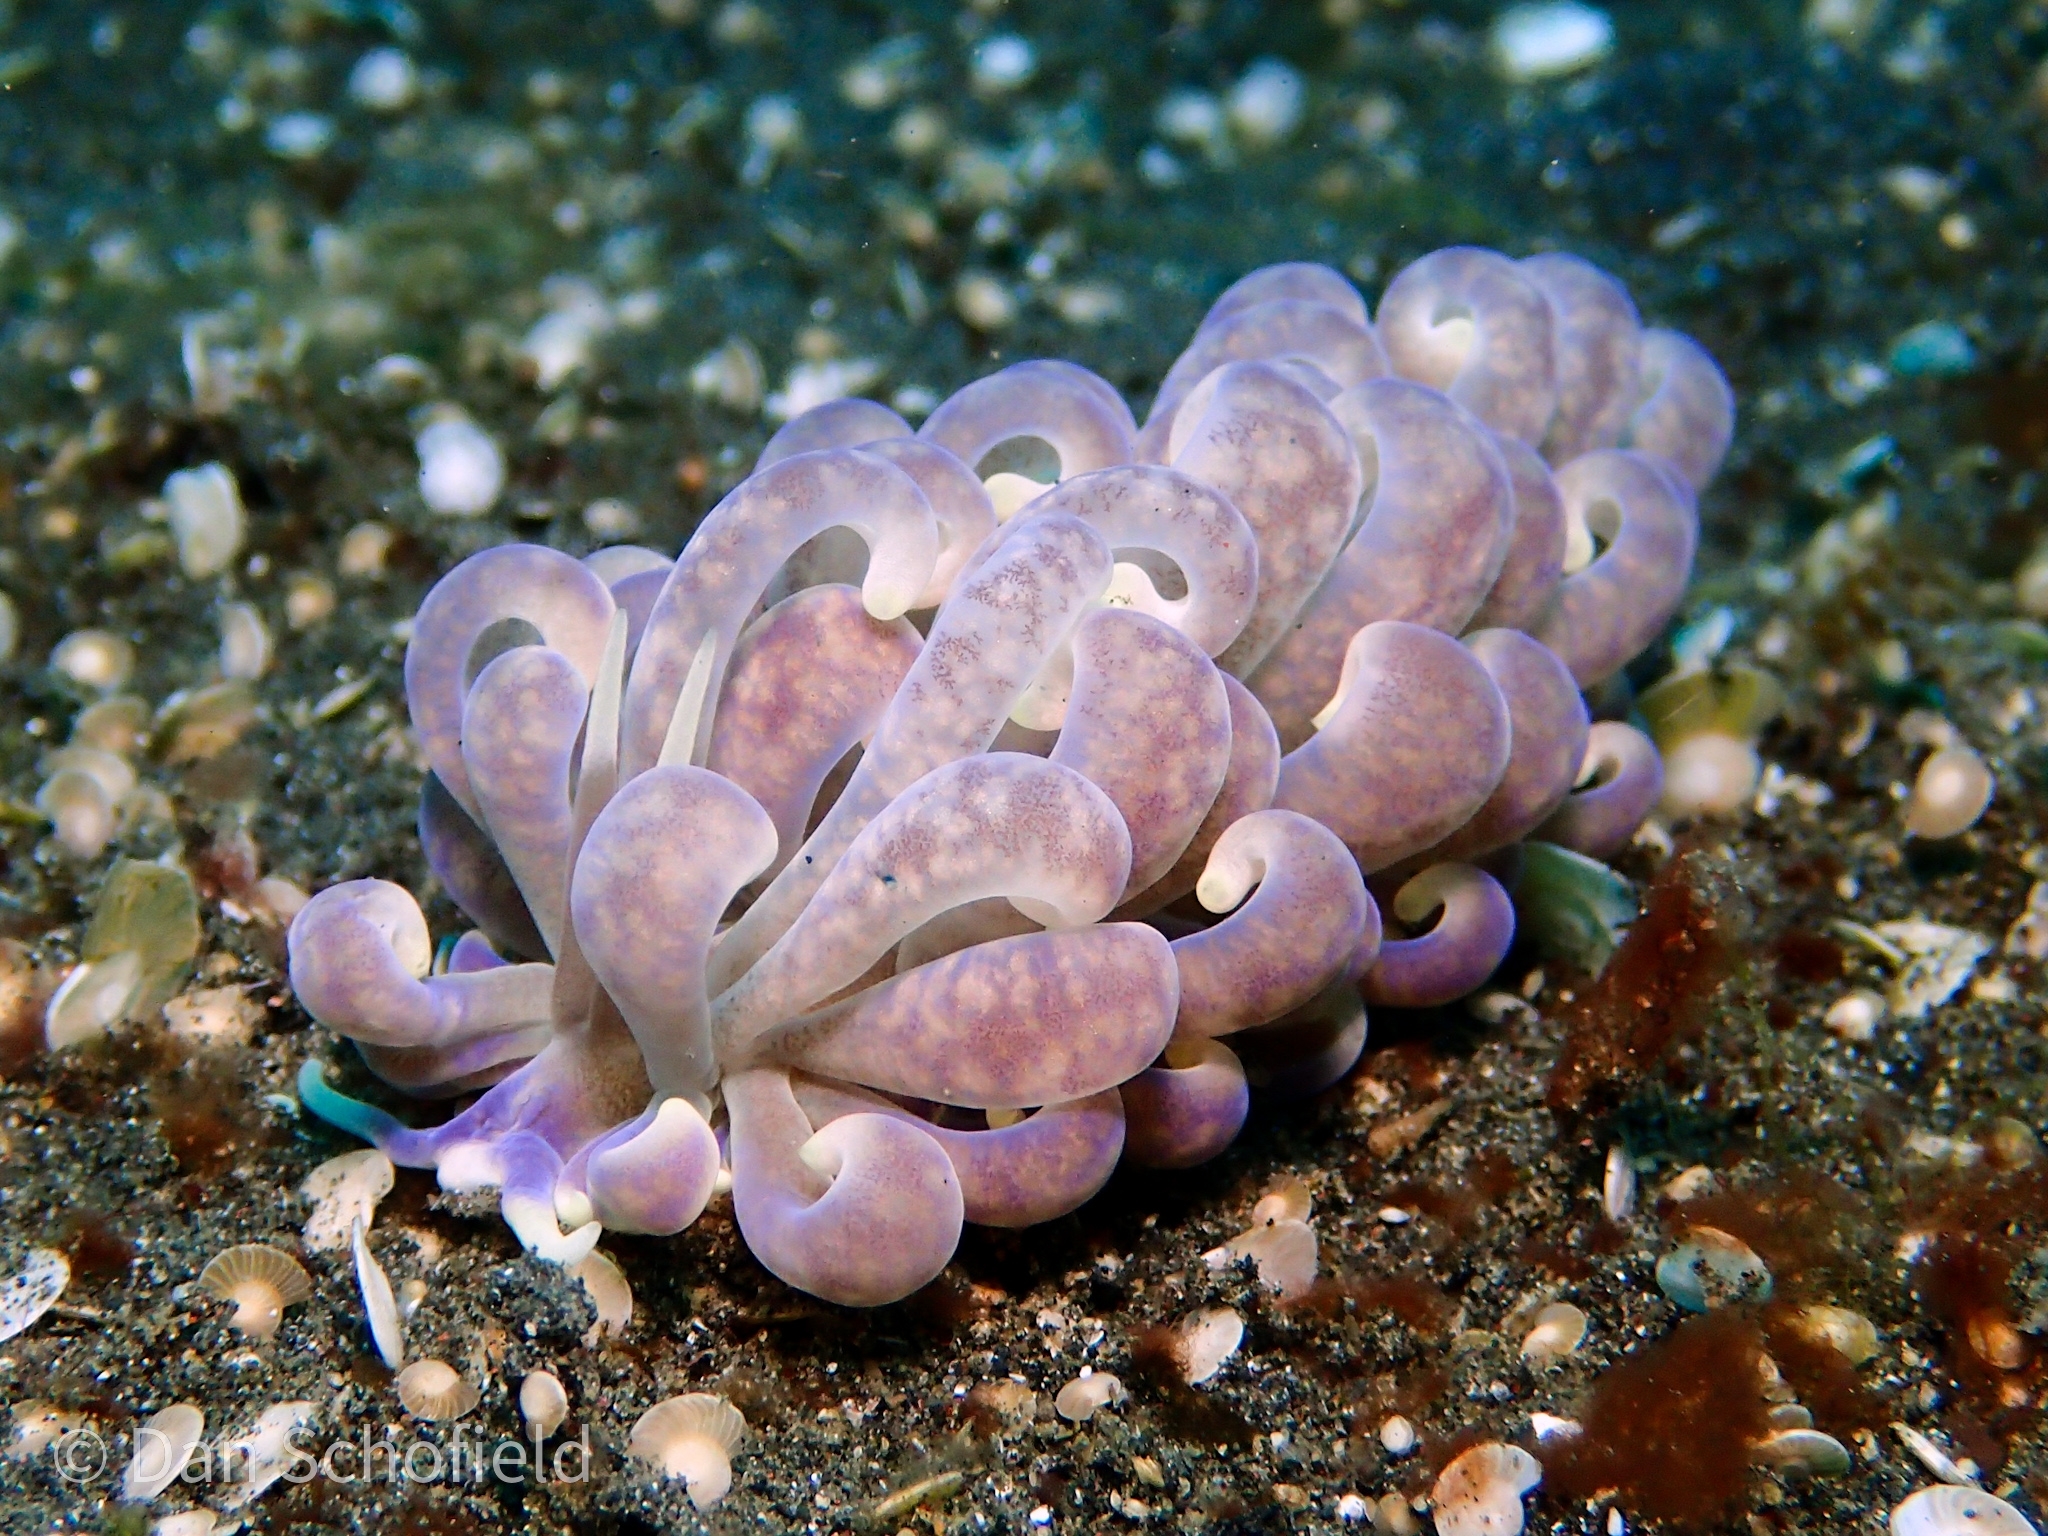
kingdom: Animalia
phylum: Mollusca
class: Gastropoda
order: Nudibranchia
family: Myrrhinidae
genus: Phyllodesmium
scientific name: Phyllodesmium magnum
